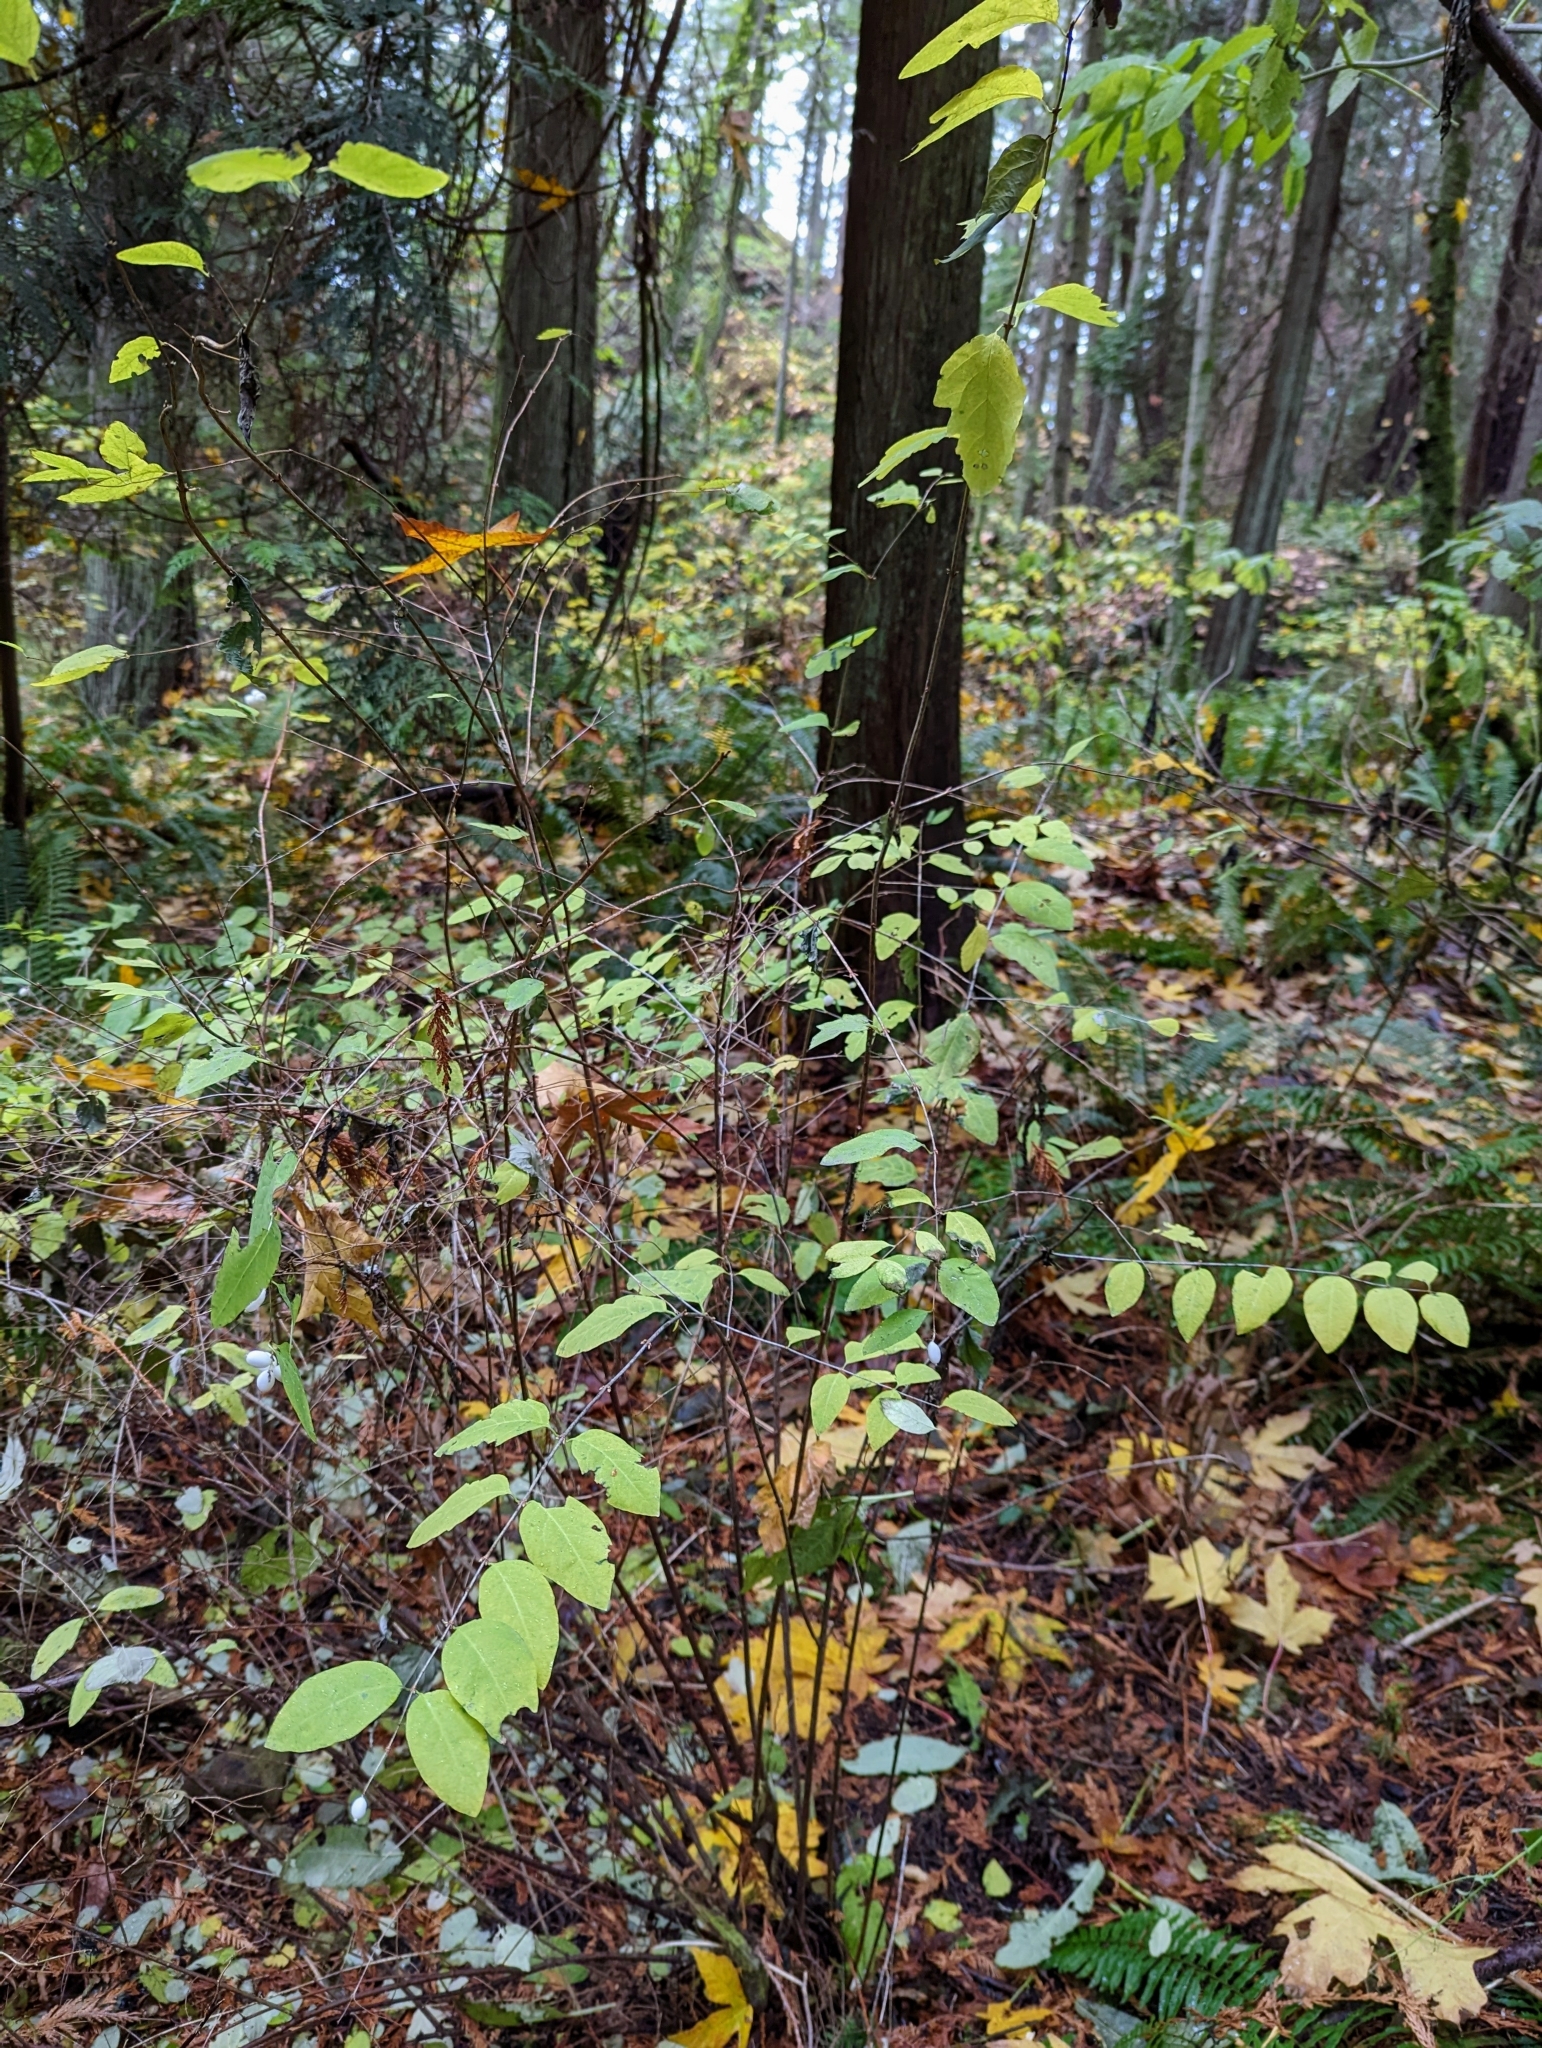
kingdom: Plantae
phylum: Tracheophyta
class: Magnoliopsida
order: Dipsacales
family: Caprifoliaceae
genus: Symphoricarpos
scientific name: Symphoricarpos albus
